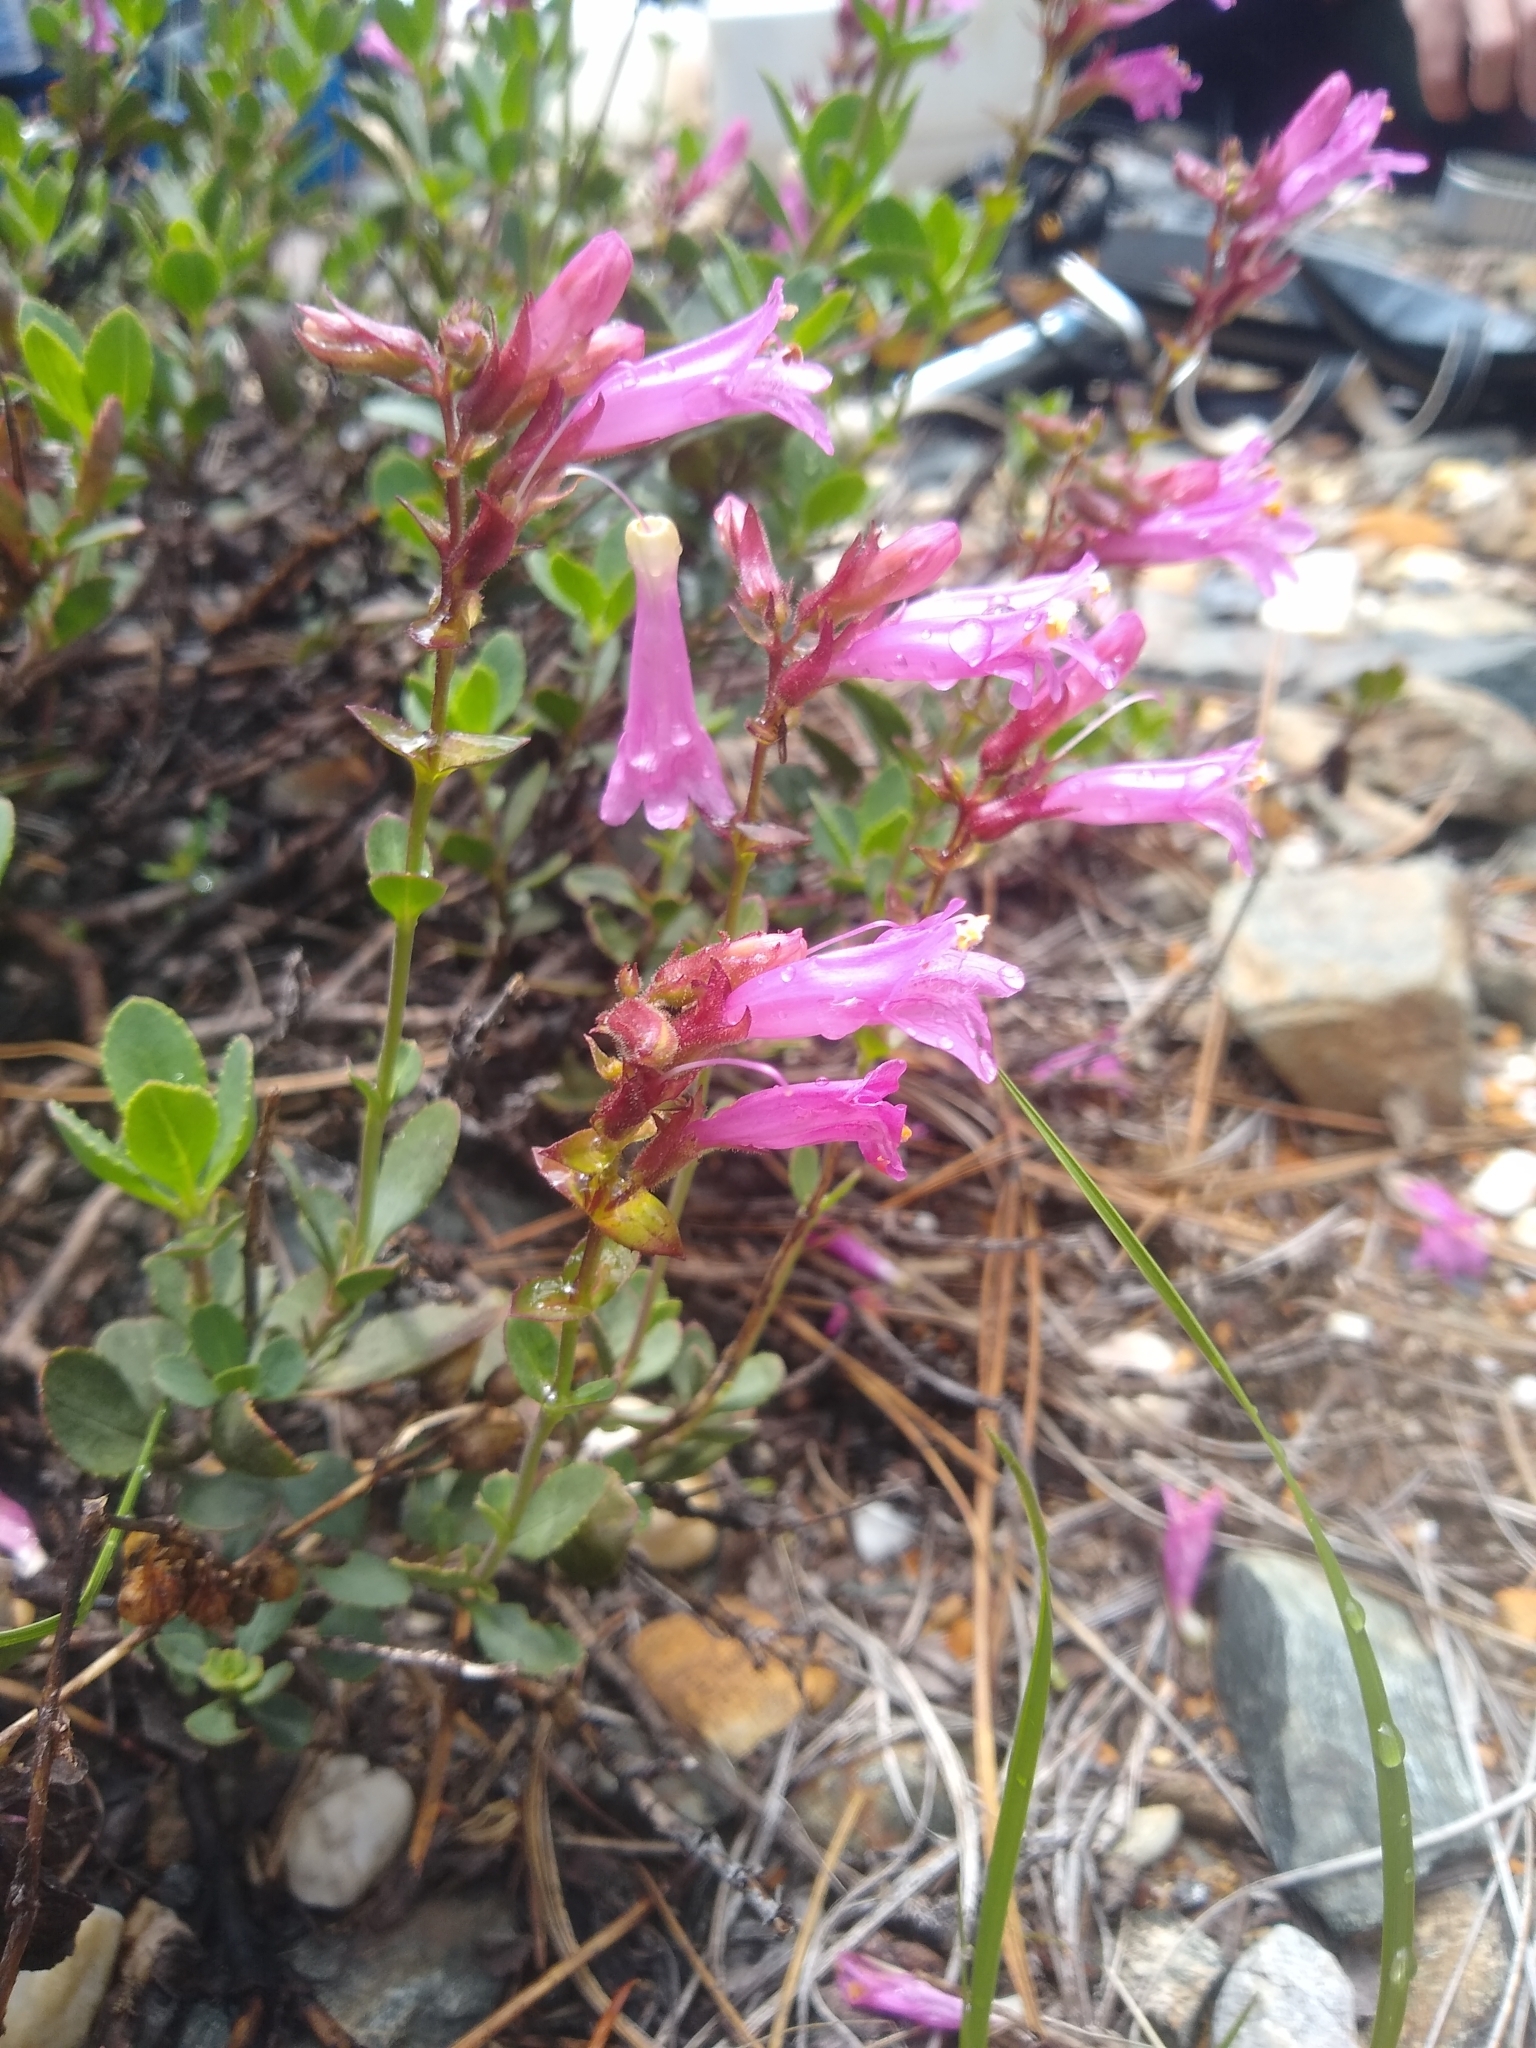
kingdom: Plantae
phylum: Tracheophyta
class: Magnoliopsida
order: Lamiales
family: Plantaginaceae
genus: Penstemon
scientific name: Penstemon newberryi
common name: Mountain-pride
